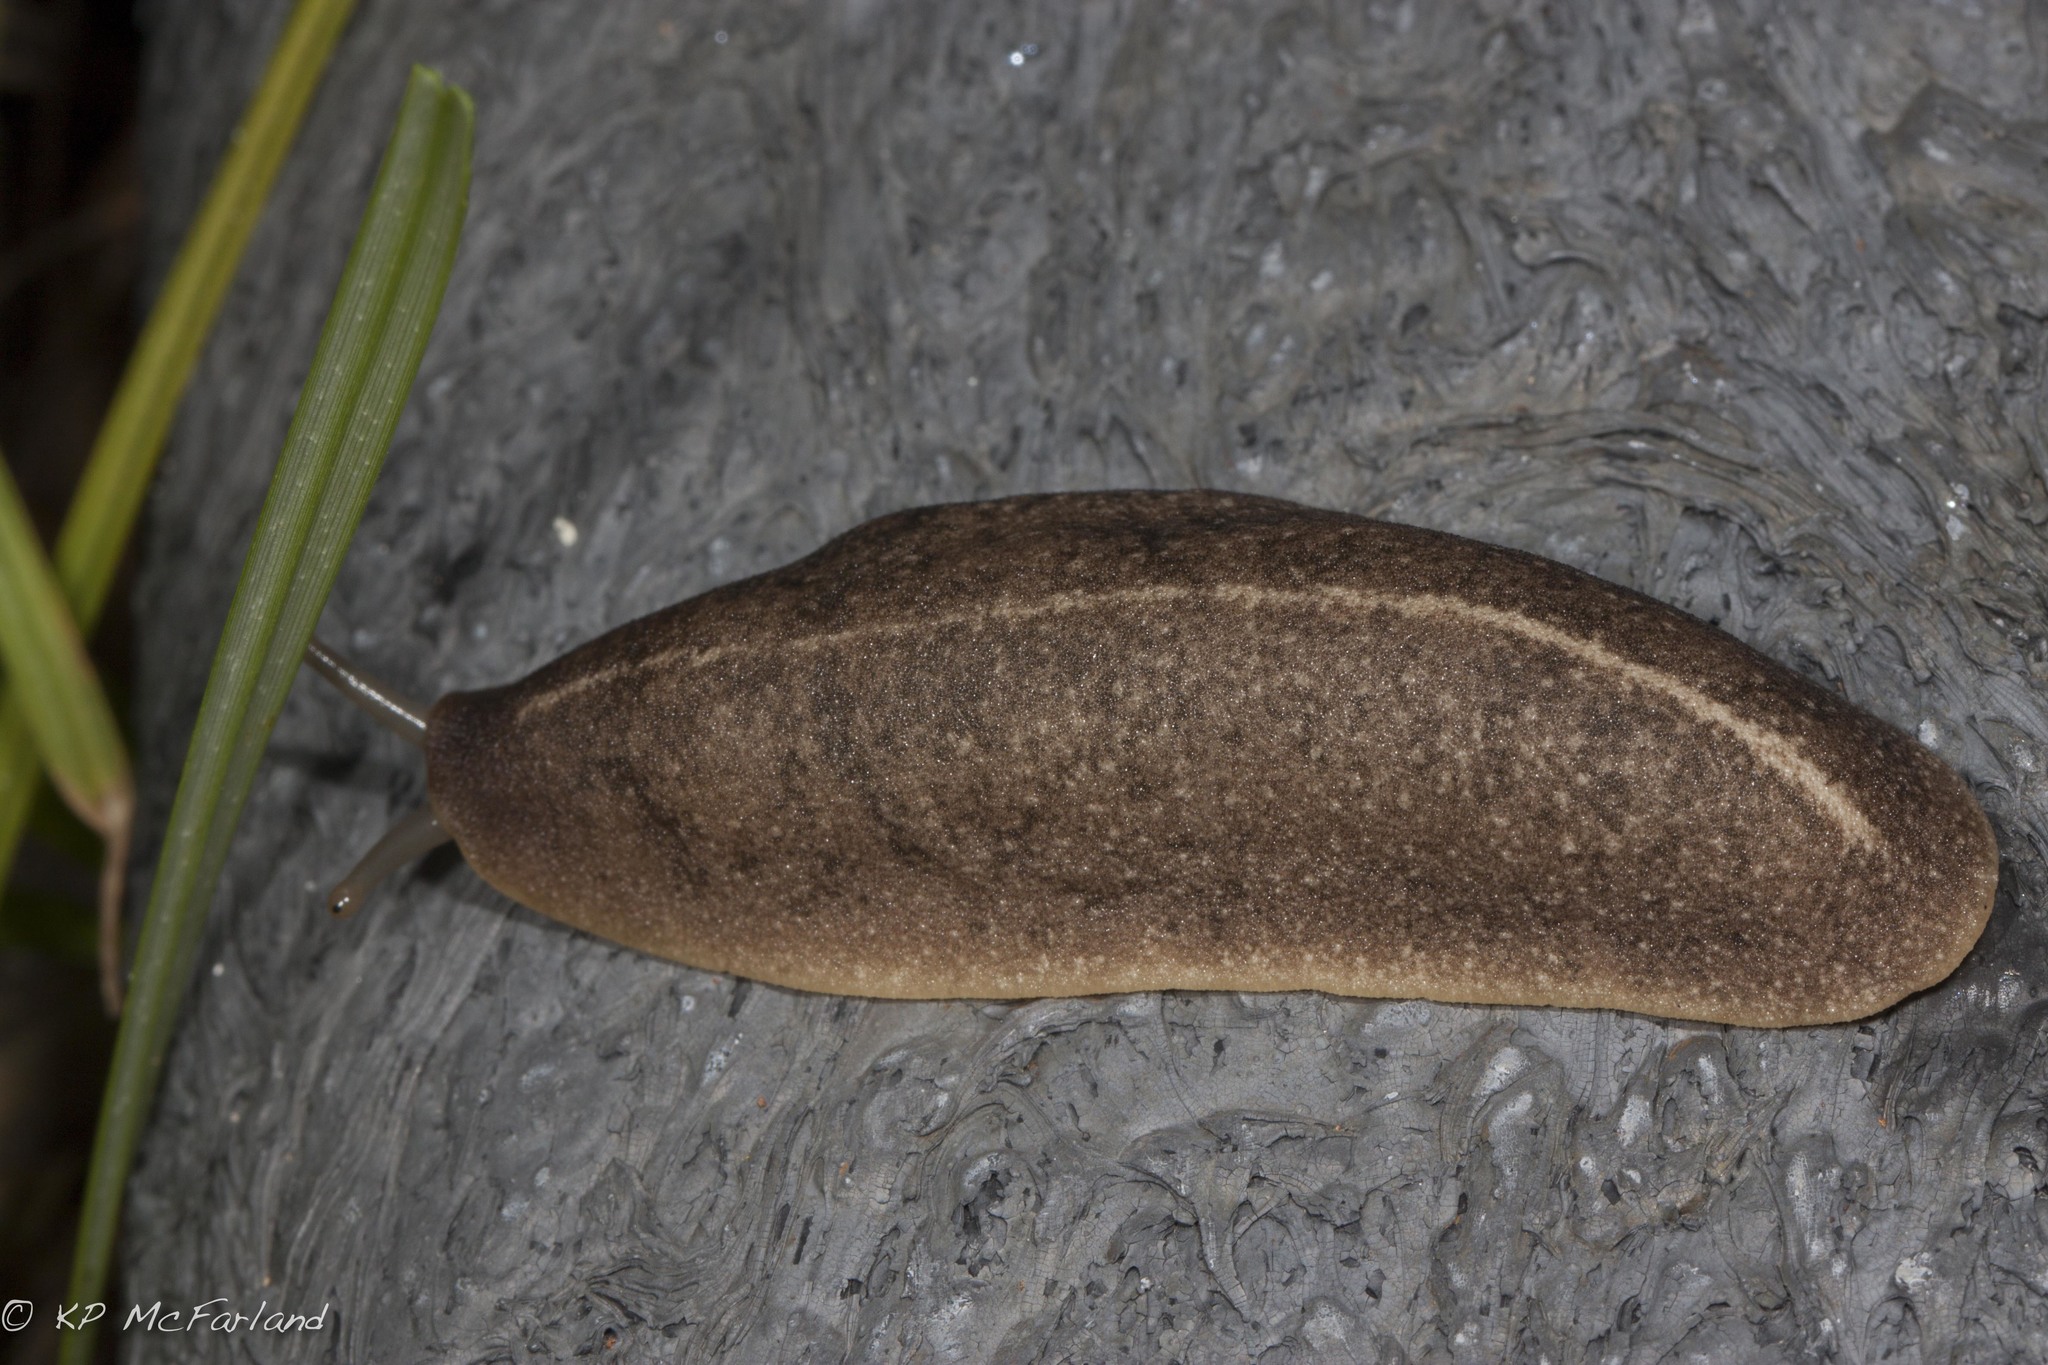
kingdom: Animalia
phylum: Mollusca
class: Gastropoda
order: Systellommatophora
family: Veronicellidae
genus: Leidyula
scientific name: Leidyula floridana
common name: Florida leatherleaf
